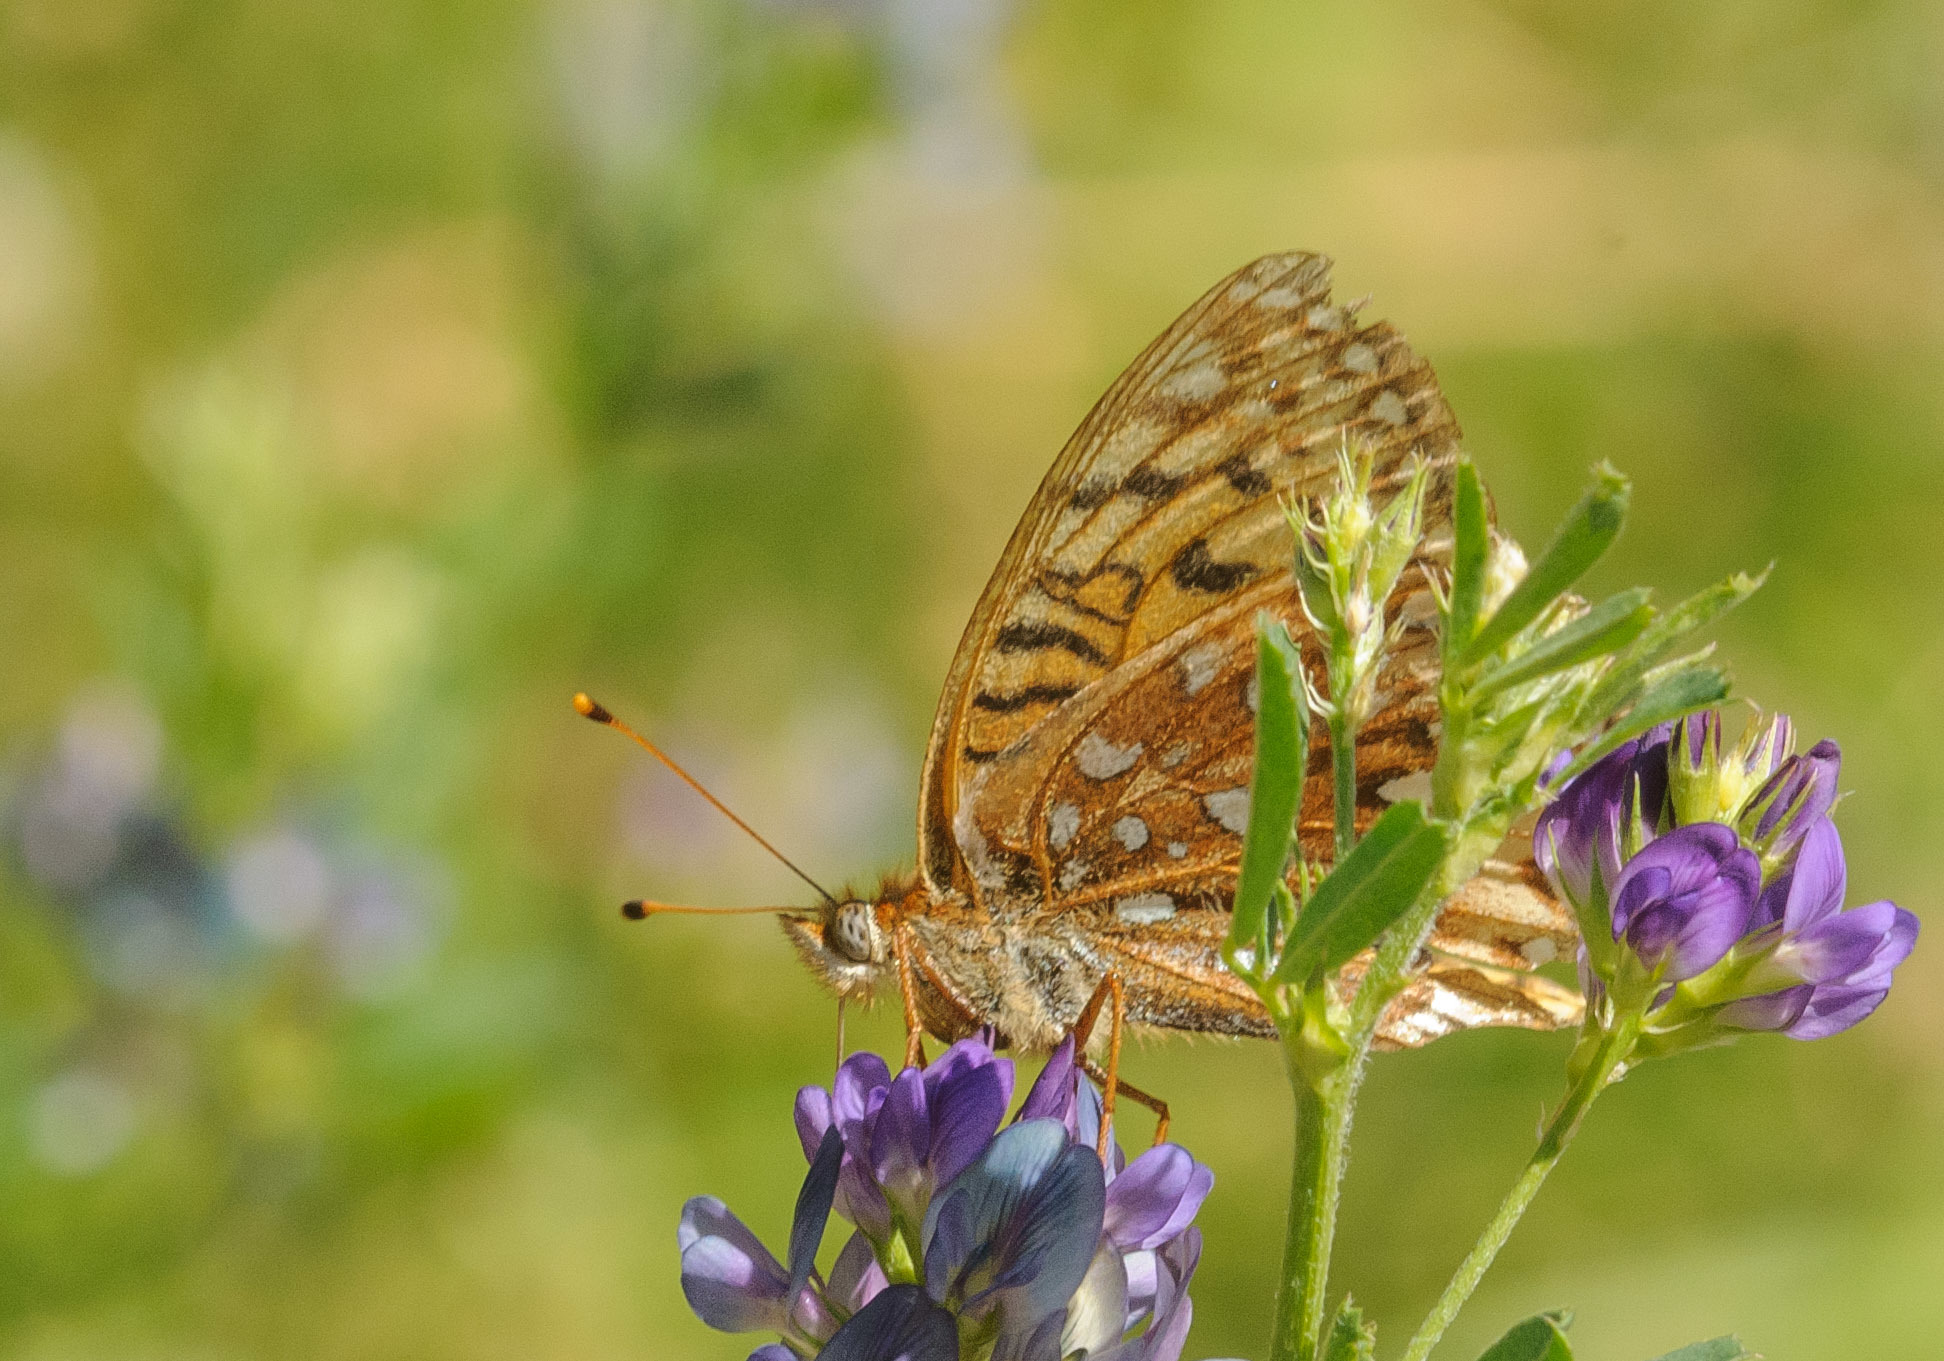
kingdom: Animalia
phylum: Arthropoda
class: Insecta
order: Lepidoptera
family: Nymphalidae
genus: Speyeria
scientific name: Speyeria atlantis
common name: Atlantis fritillary
